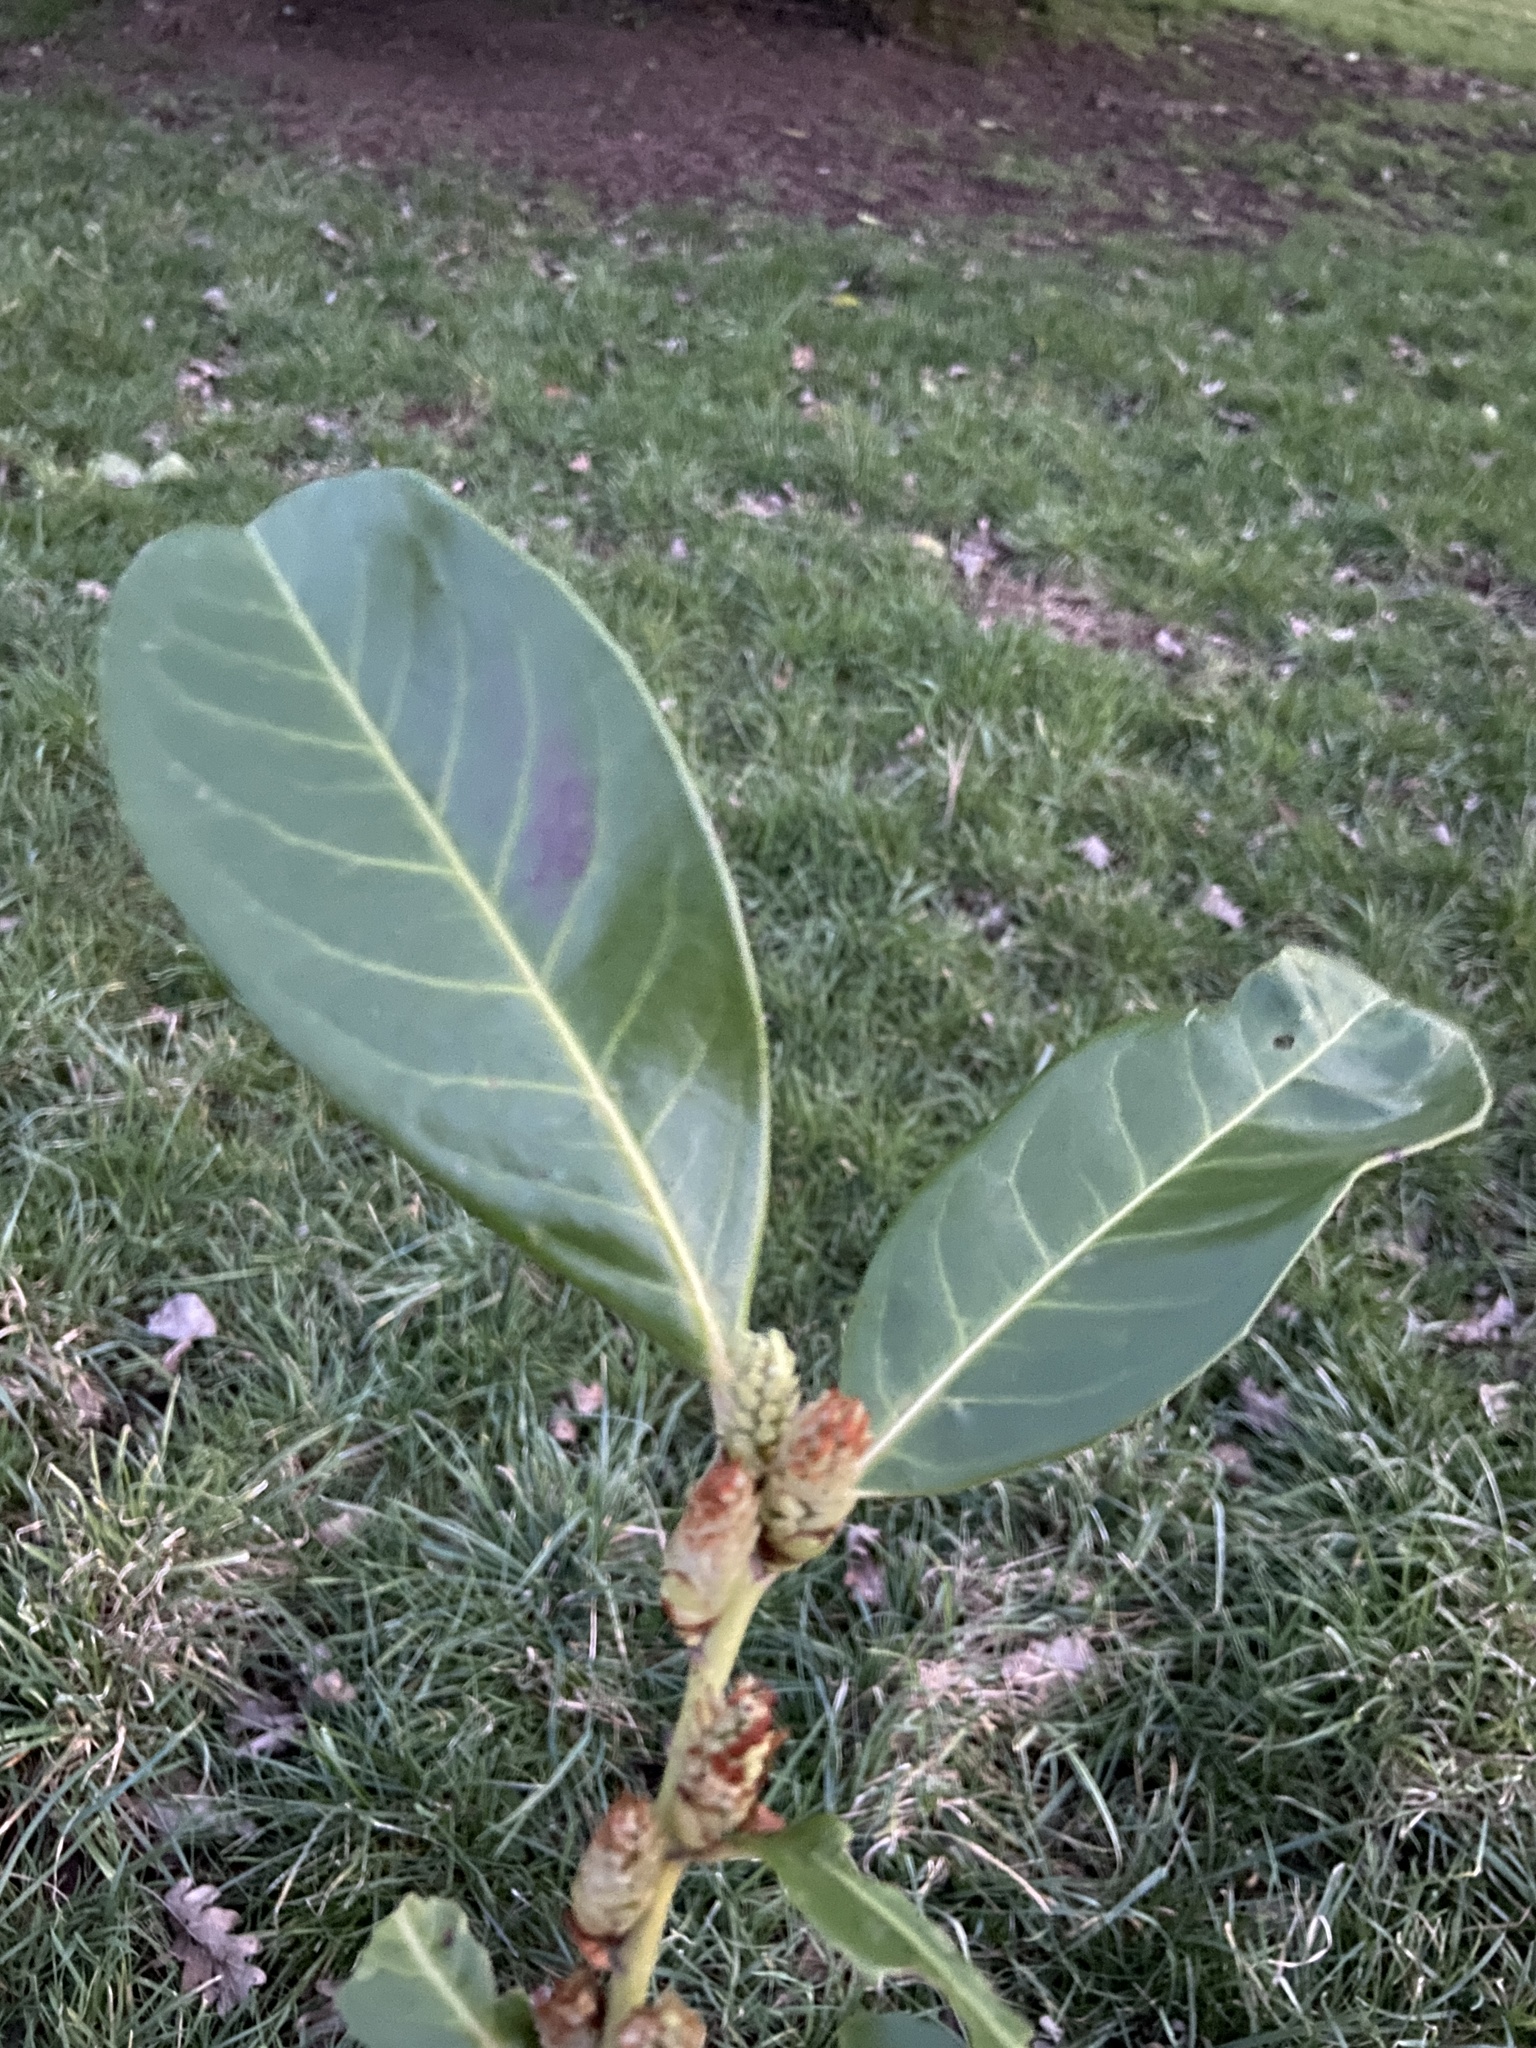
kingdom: Plantae
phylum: Tracheophyta
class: Magnoliopsida
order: Rosales
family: Rosaceae
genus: Prunus
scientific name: Prunus laurocerasus
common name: Cherry laurel
